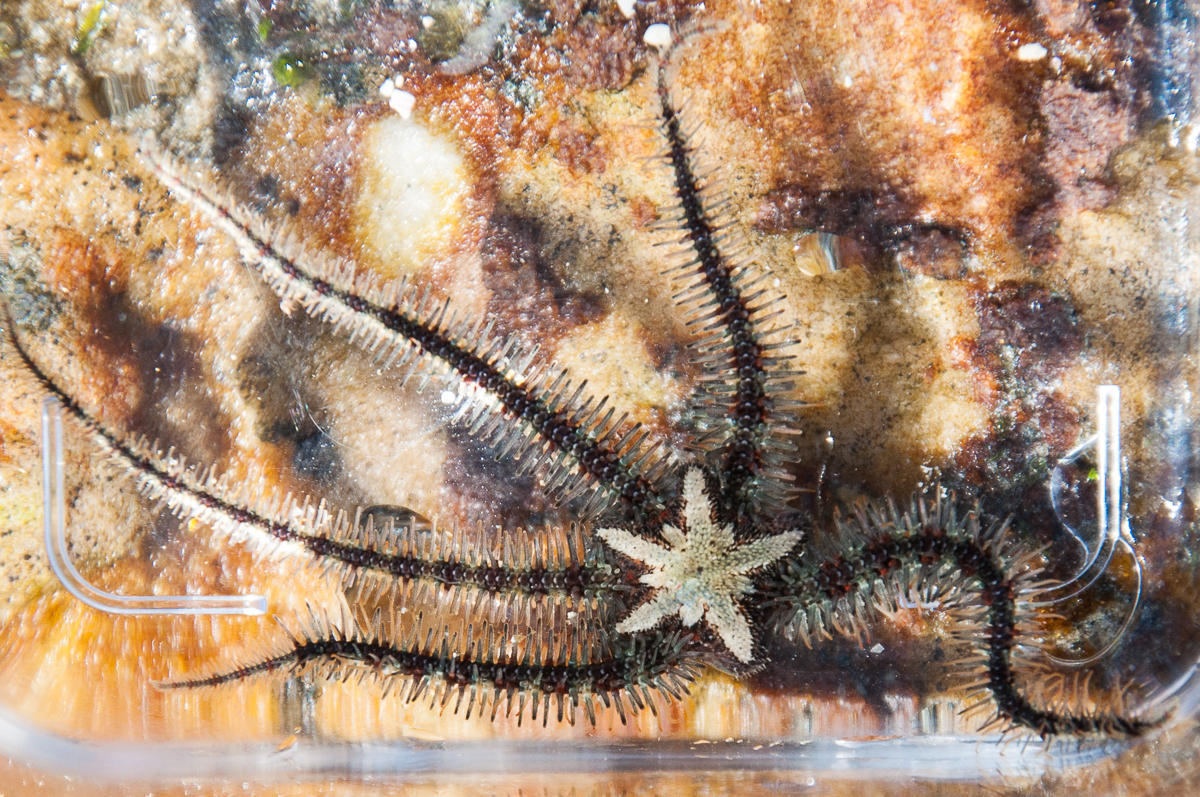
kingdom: Animalia
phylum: Echinodermata
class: Ophiuroidea
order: Amphilepidida
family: Ophiotrichidae
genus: Ophiothrix
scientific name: Ophiothrix fragilis
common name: Common brittlestar
